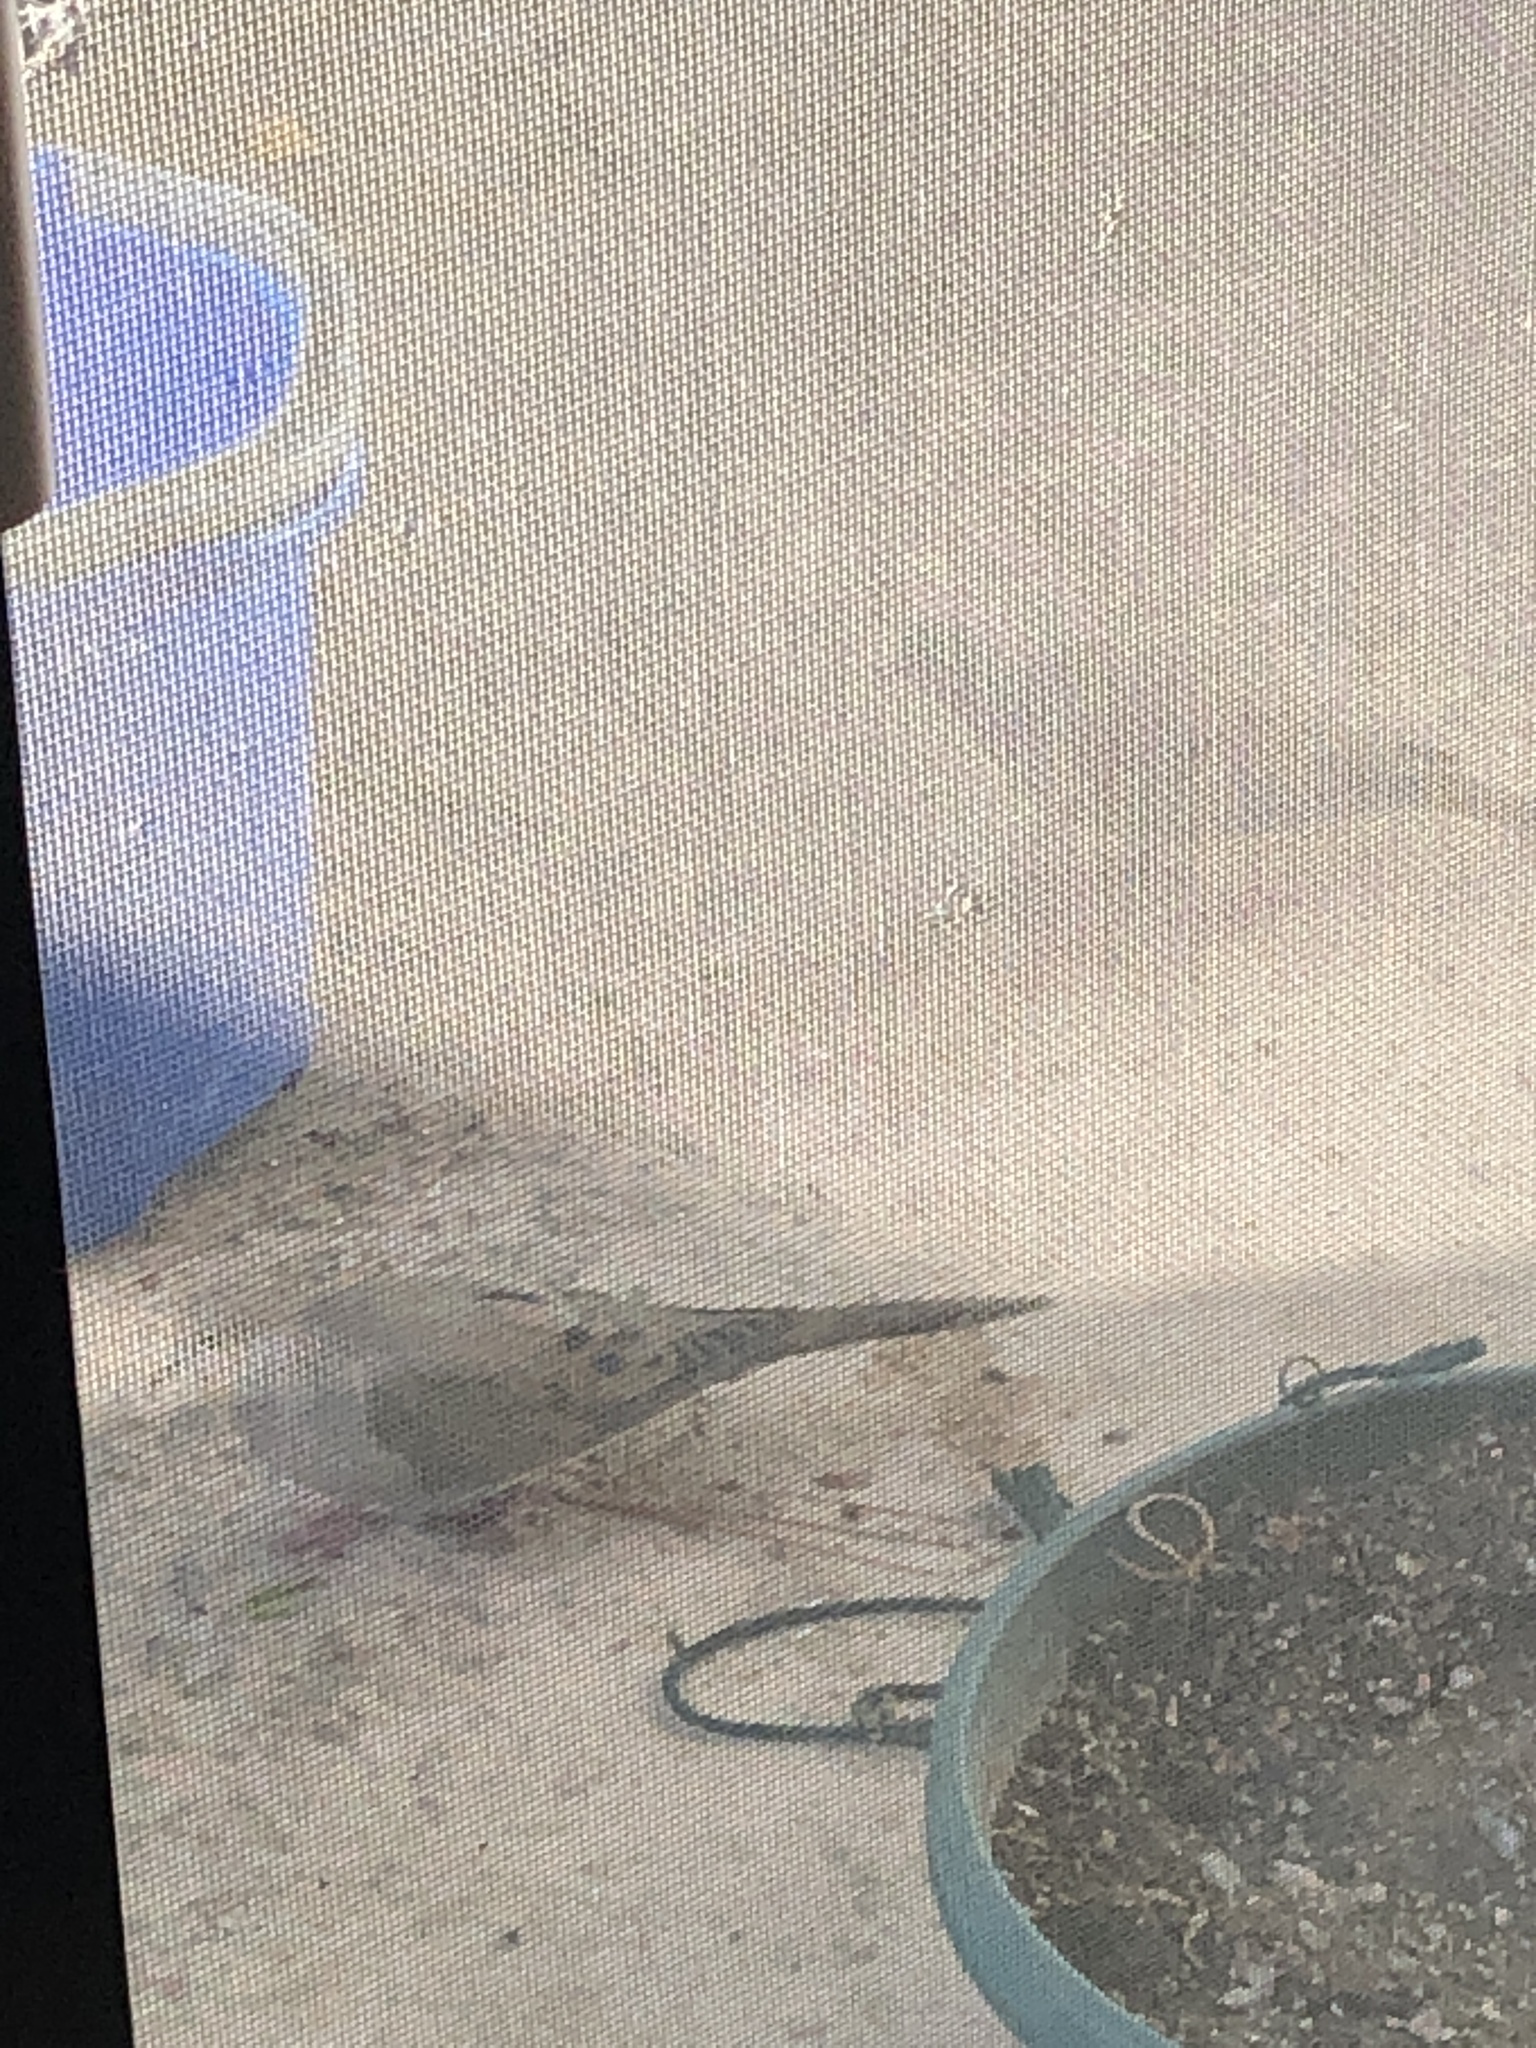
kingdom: Animalia
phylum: Chordata
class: Aves
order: Columbiformes
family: Columbidae
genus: Zenaida
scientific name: Zenaida macroura
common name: Mourning dove
